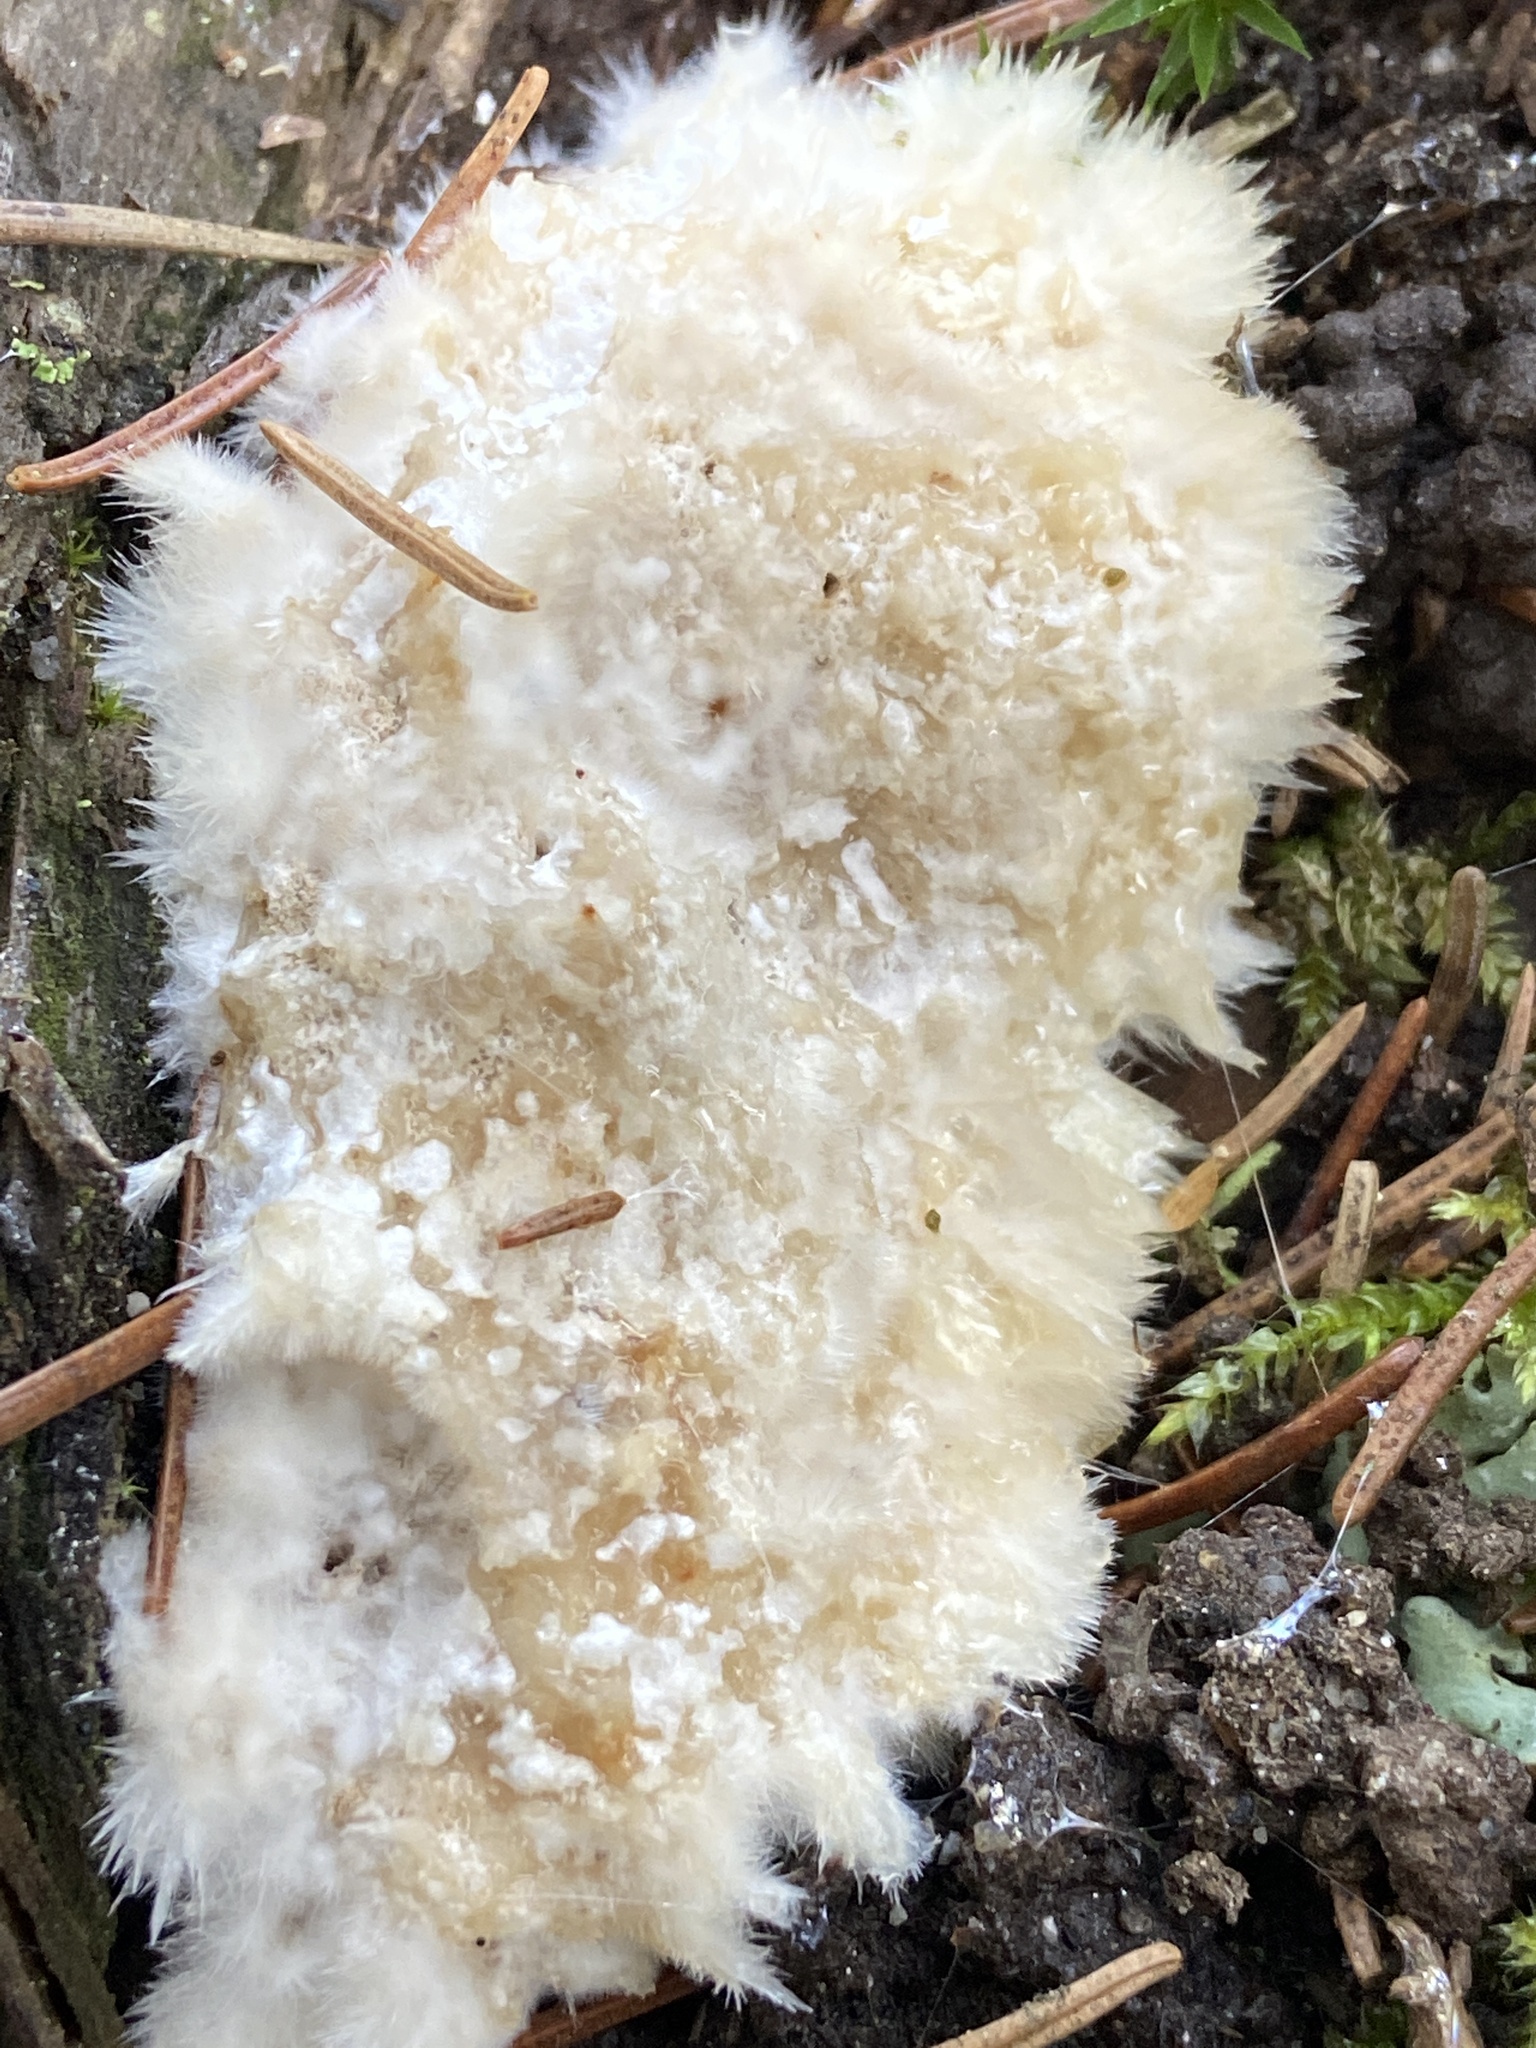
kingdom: Fungi
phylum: Basidiomycota
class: Agaricomycetes
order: Polyporales
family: Dacryobolaceae
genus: Postia
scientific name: Postia ptychogaster
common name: Powderpuff bracket
